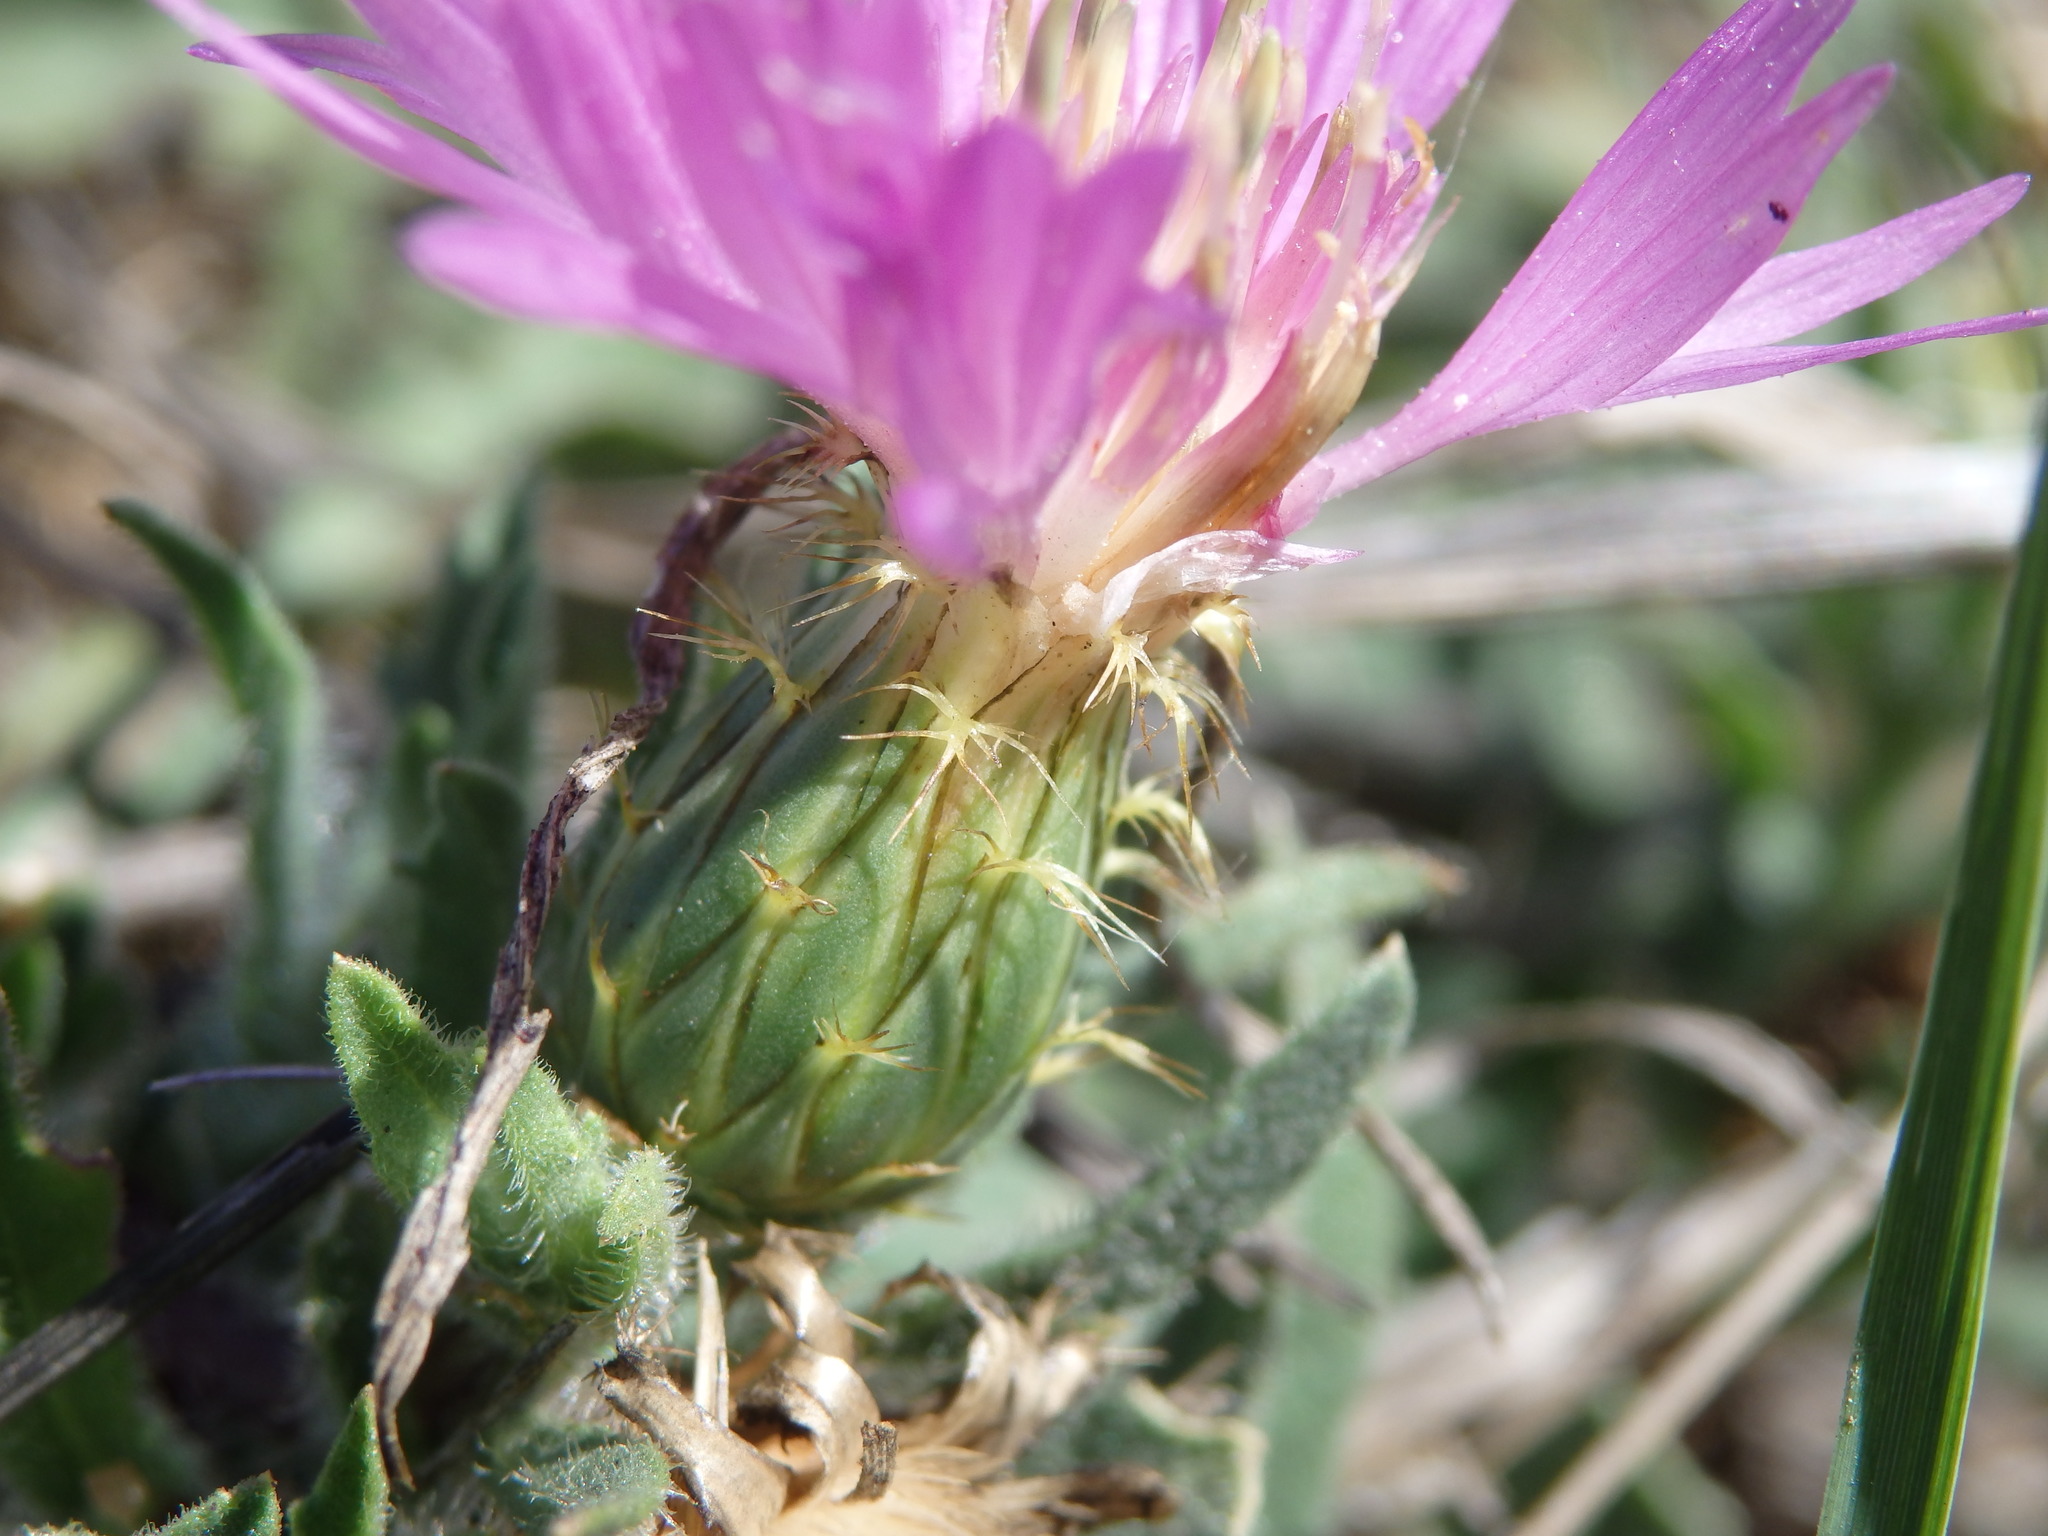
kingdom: Plantae
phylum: Tracheophyta
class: Magnoliopsida
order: Asterales
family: Asteraceae
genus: Centaurea
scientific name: Centaurea pullata
